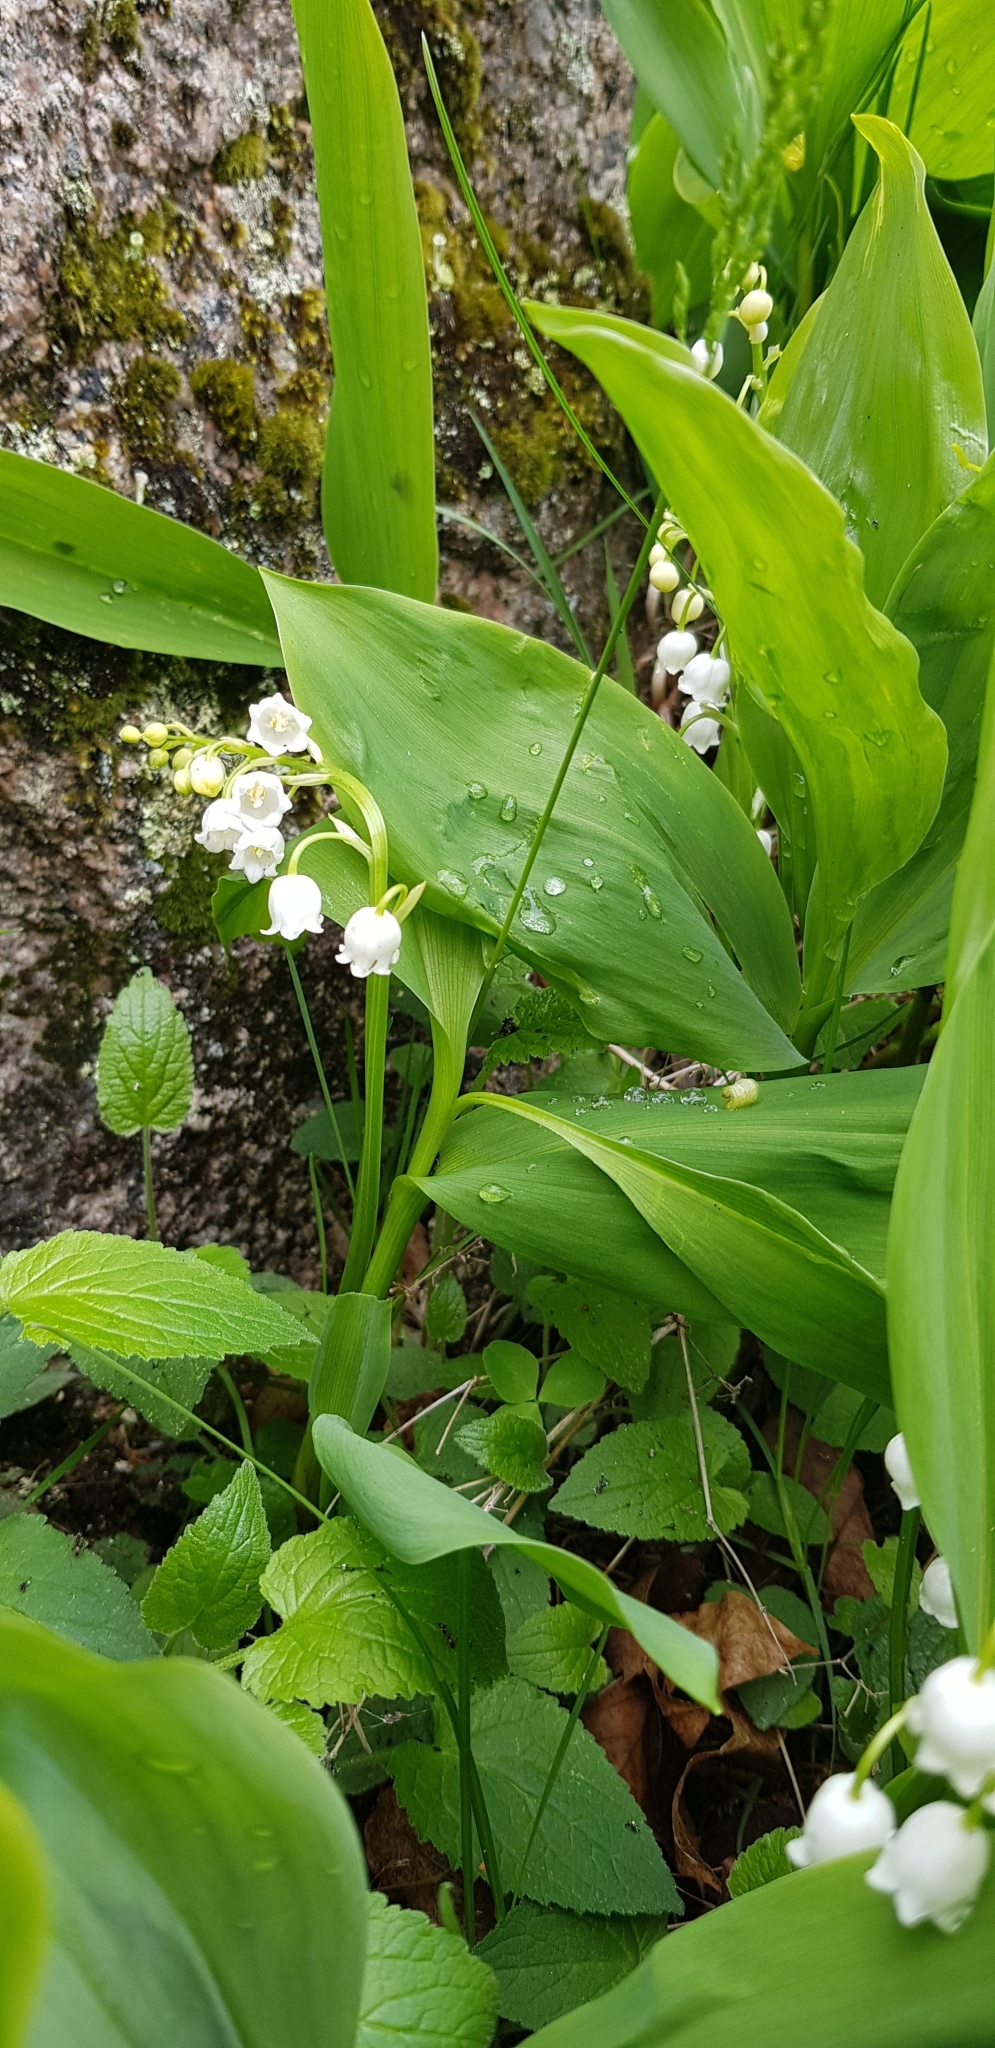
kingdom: Plantae
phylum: Tracheophyta
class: Liliopsida
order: Asparagales
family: Asparagaceae
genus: Convallaria
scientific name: Convallaria majalis
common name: Lily-of-the-valley
